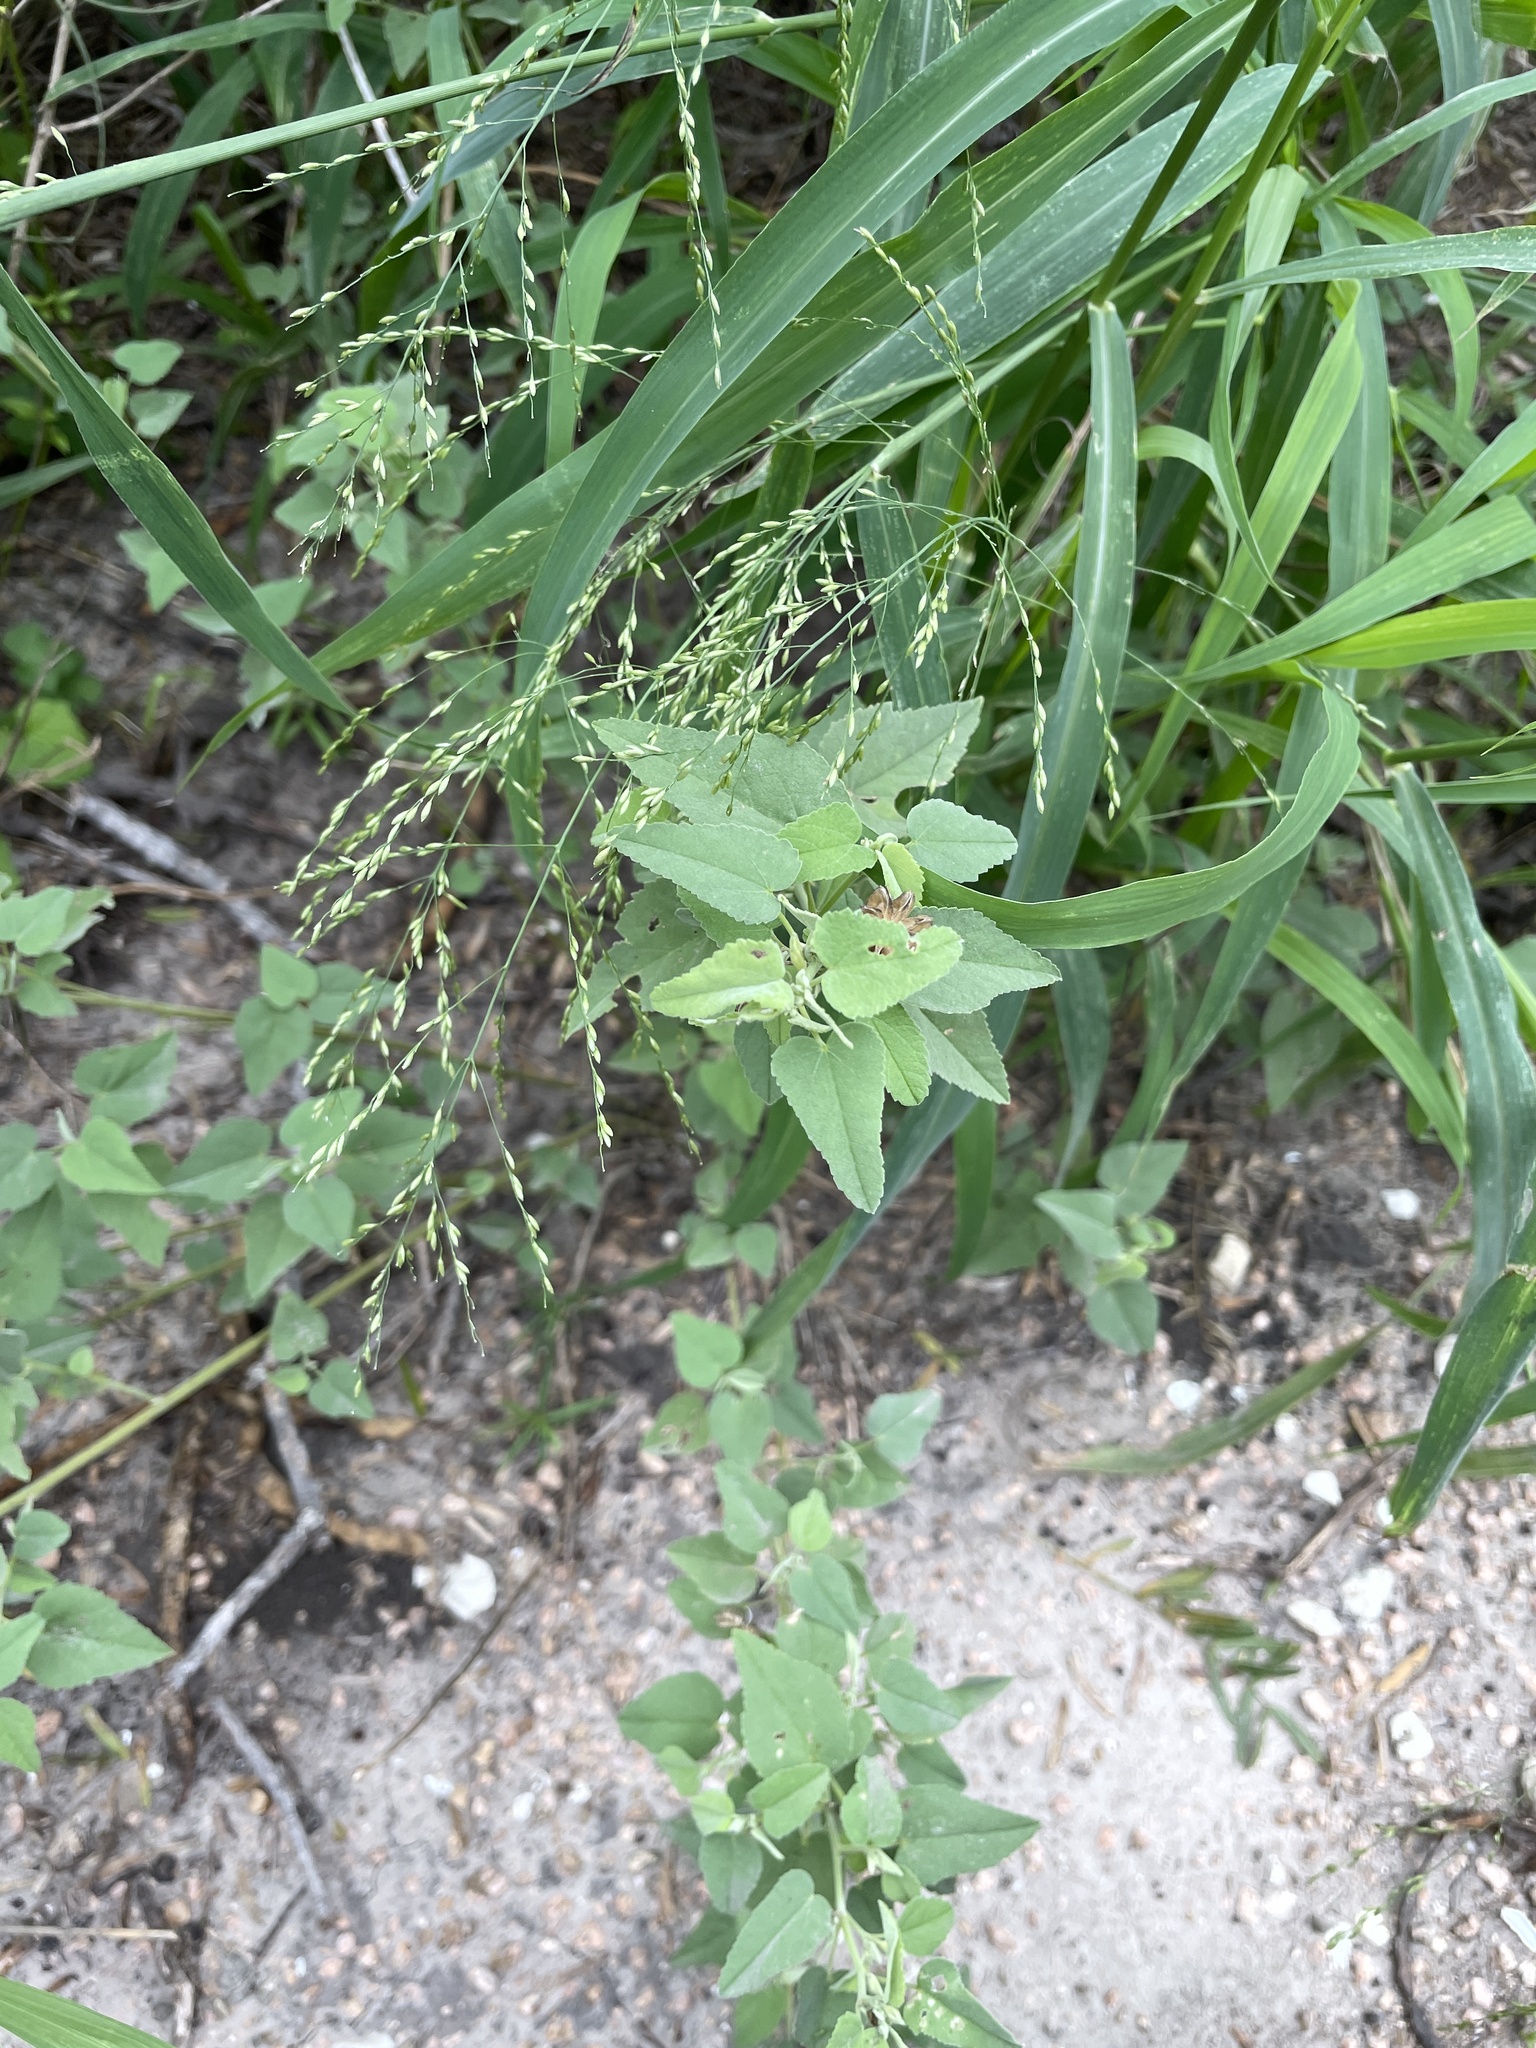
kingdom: Plantae
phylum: Tracheophyta
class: Magnoliopsida
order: Malvales
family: Malvaceae
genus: Abutilon
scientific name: Abutilon fruticosum
